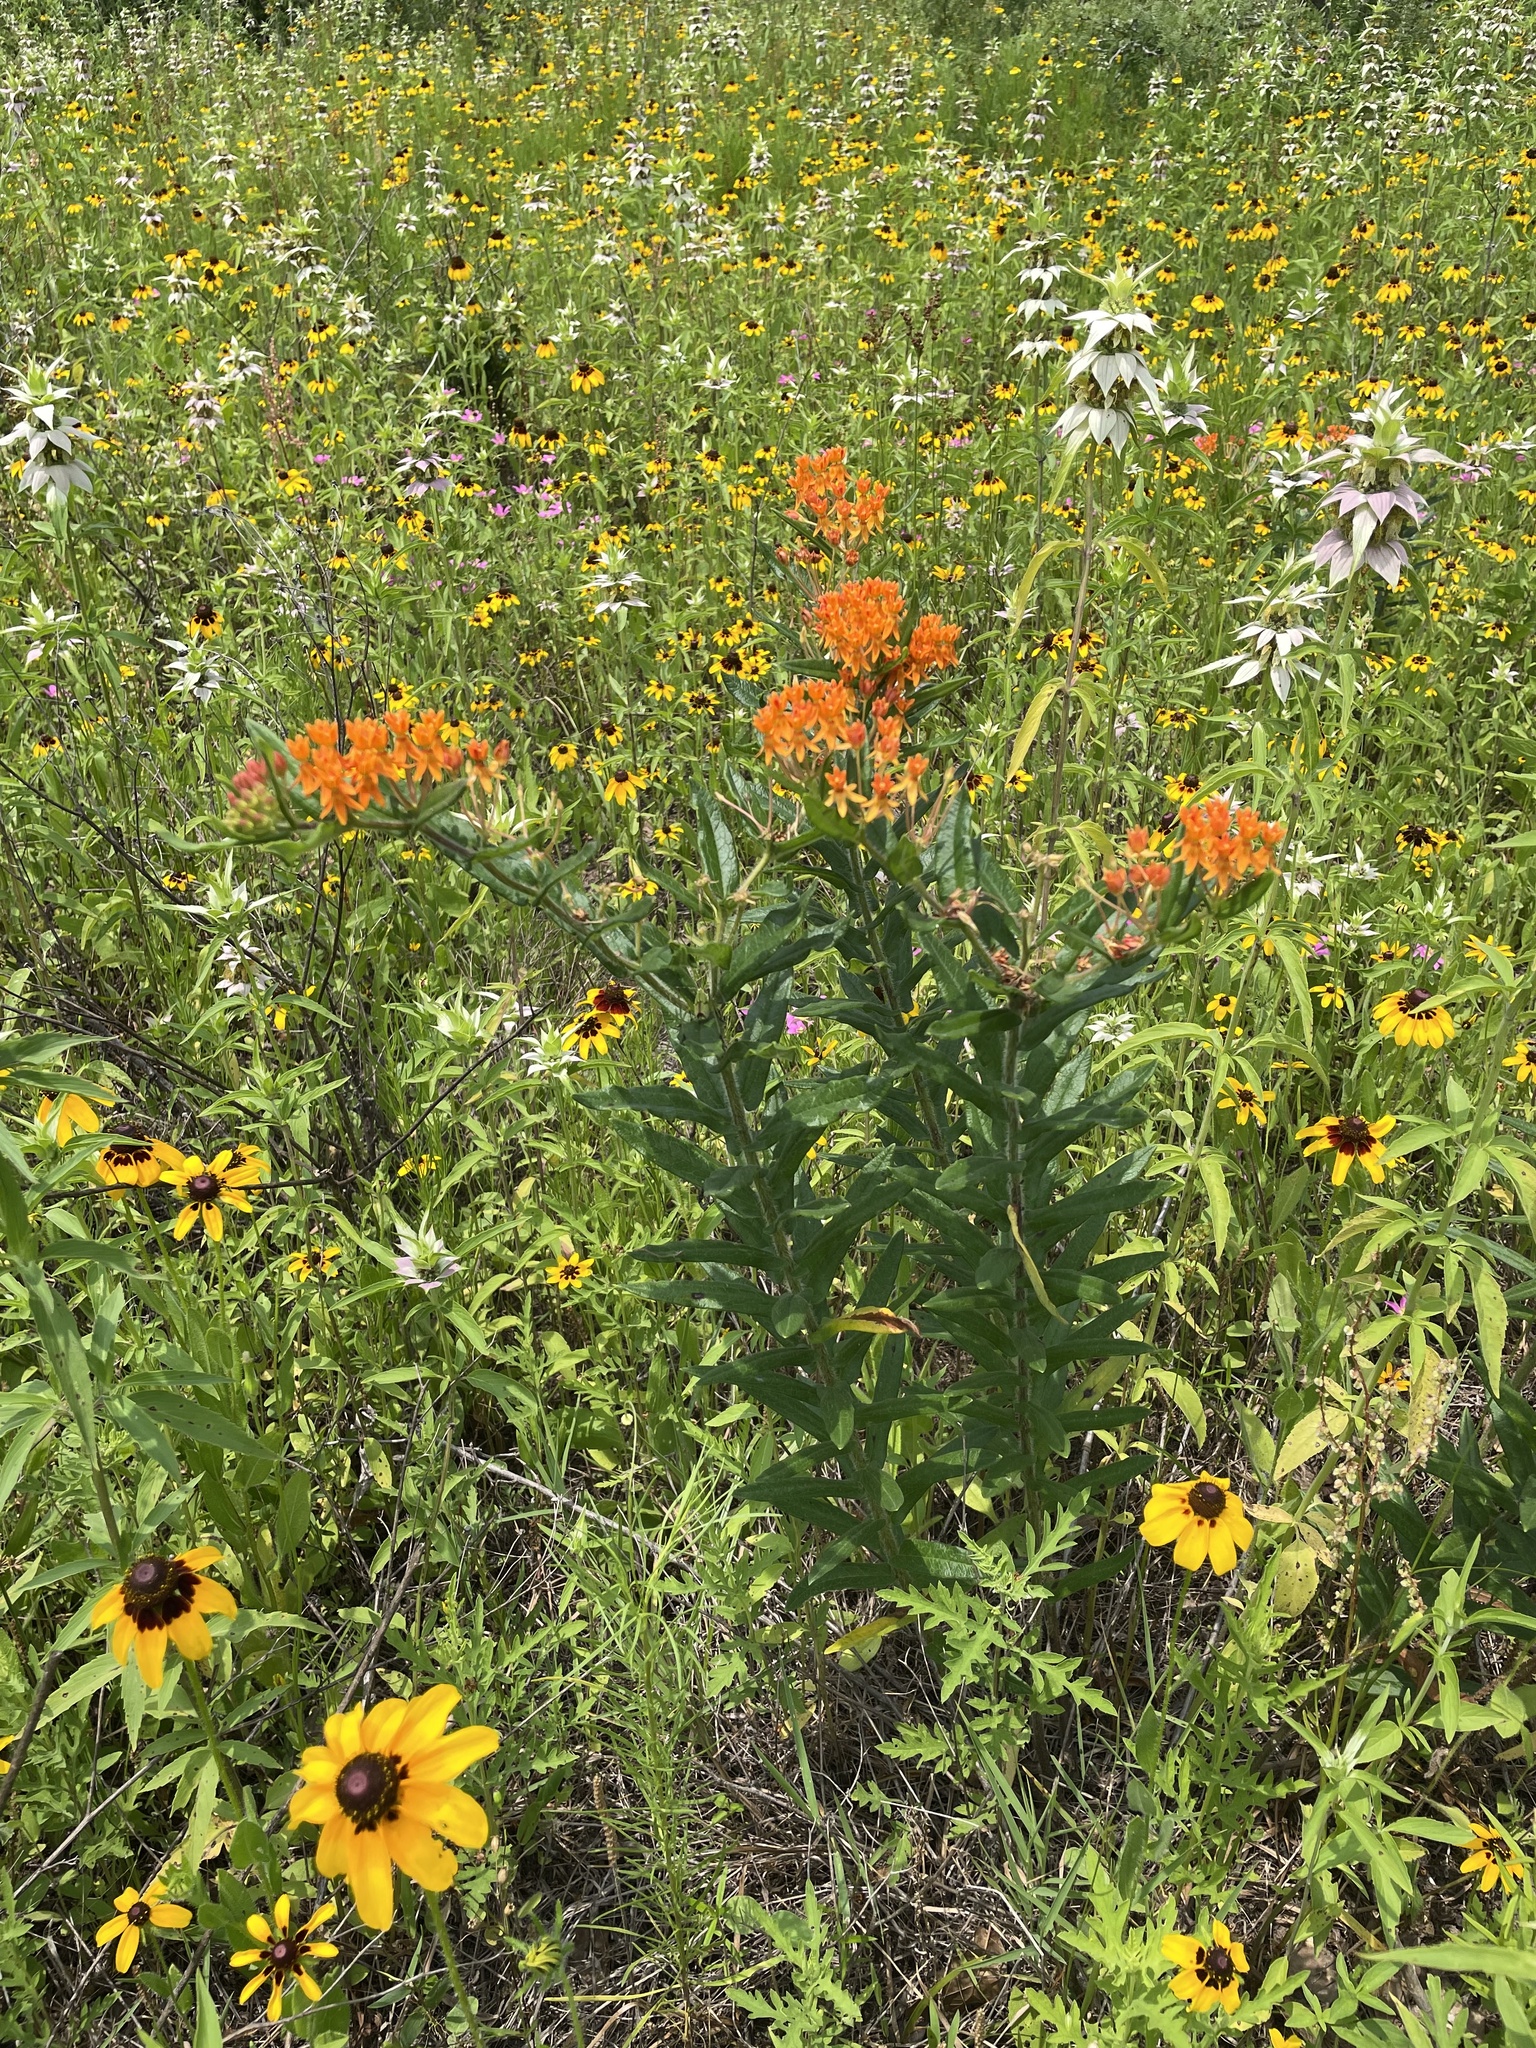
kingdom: Plantae
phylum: Tracheophyta
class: Magnoliopsida
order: Gentianales
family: Apocynaceae
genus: Asclepias
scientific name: Asclepias tuberosa
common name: Butterfly milkweed
